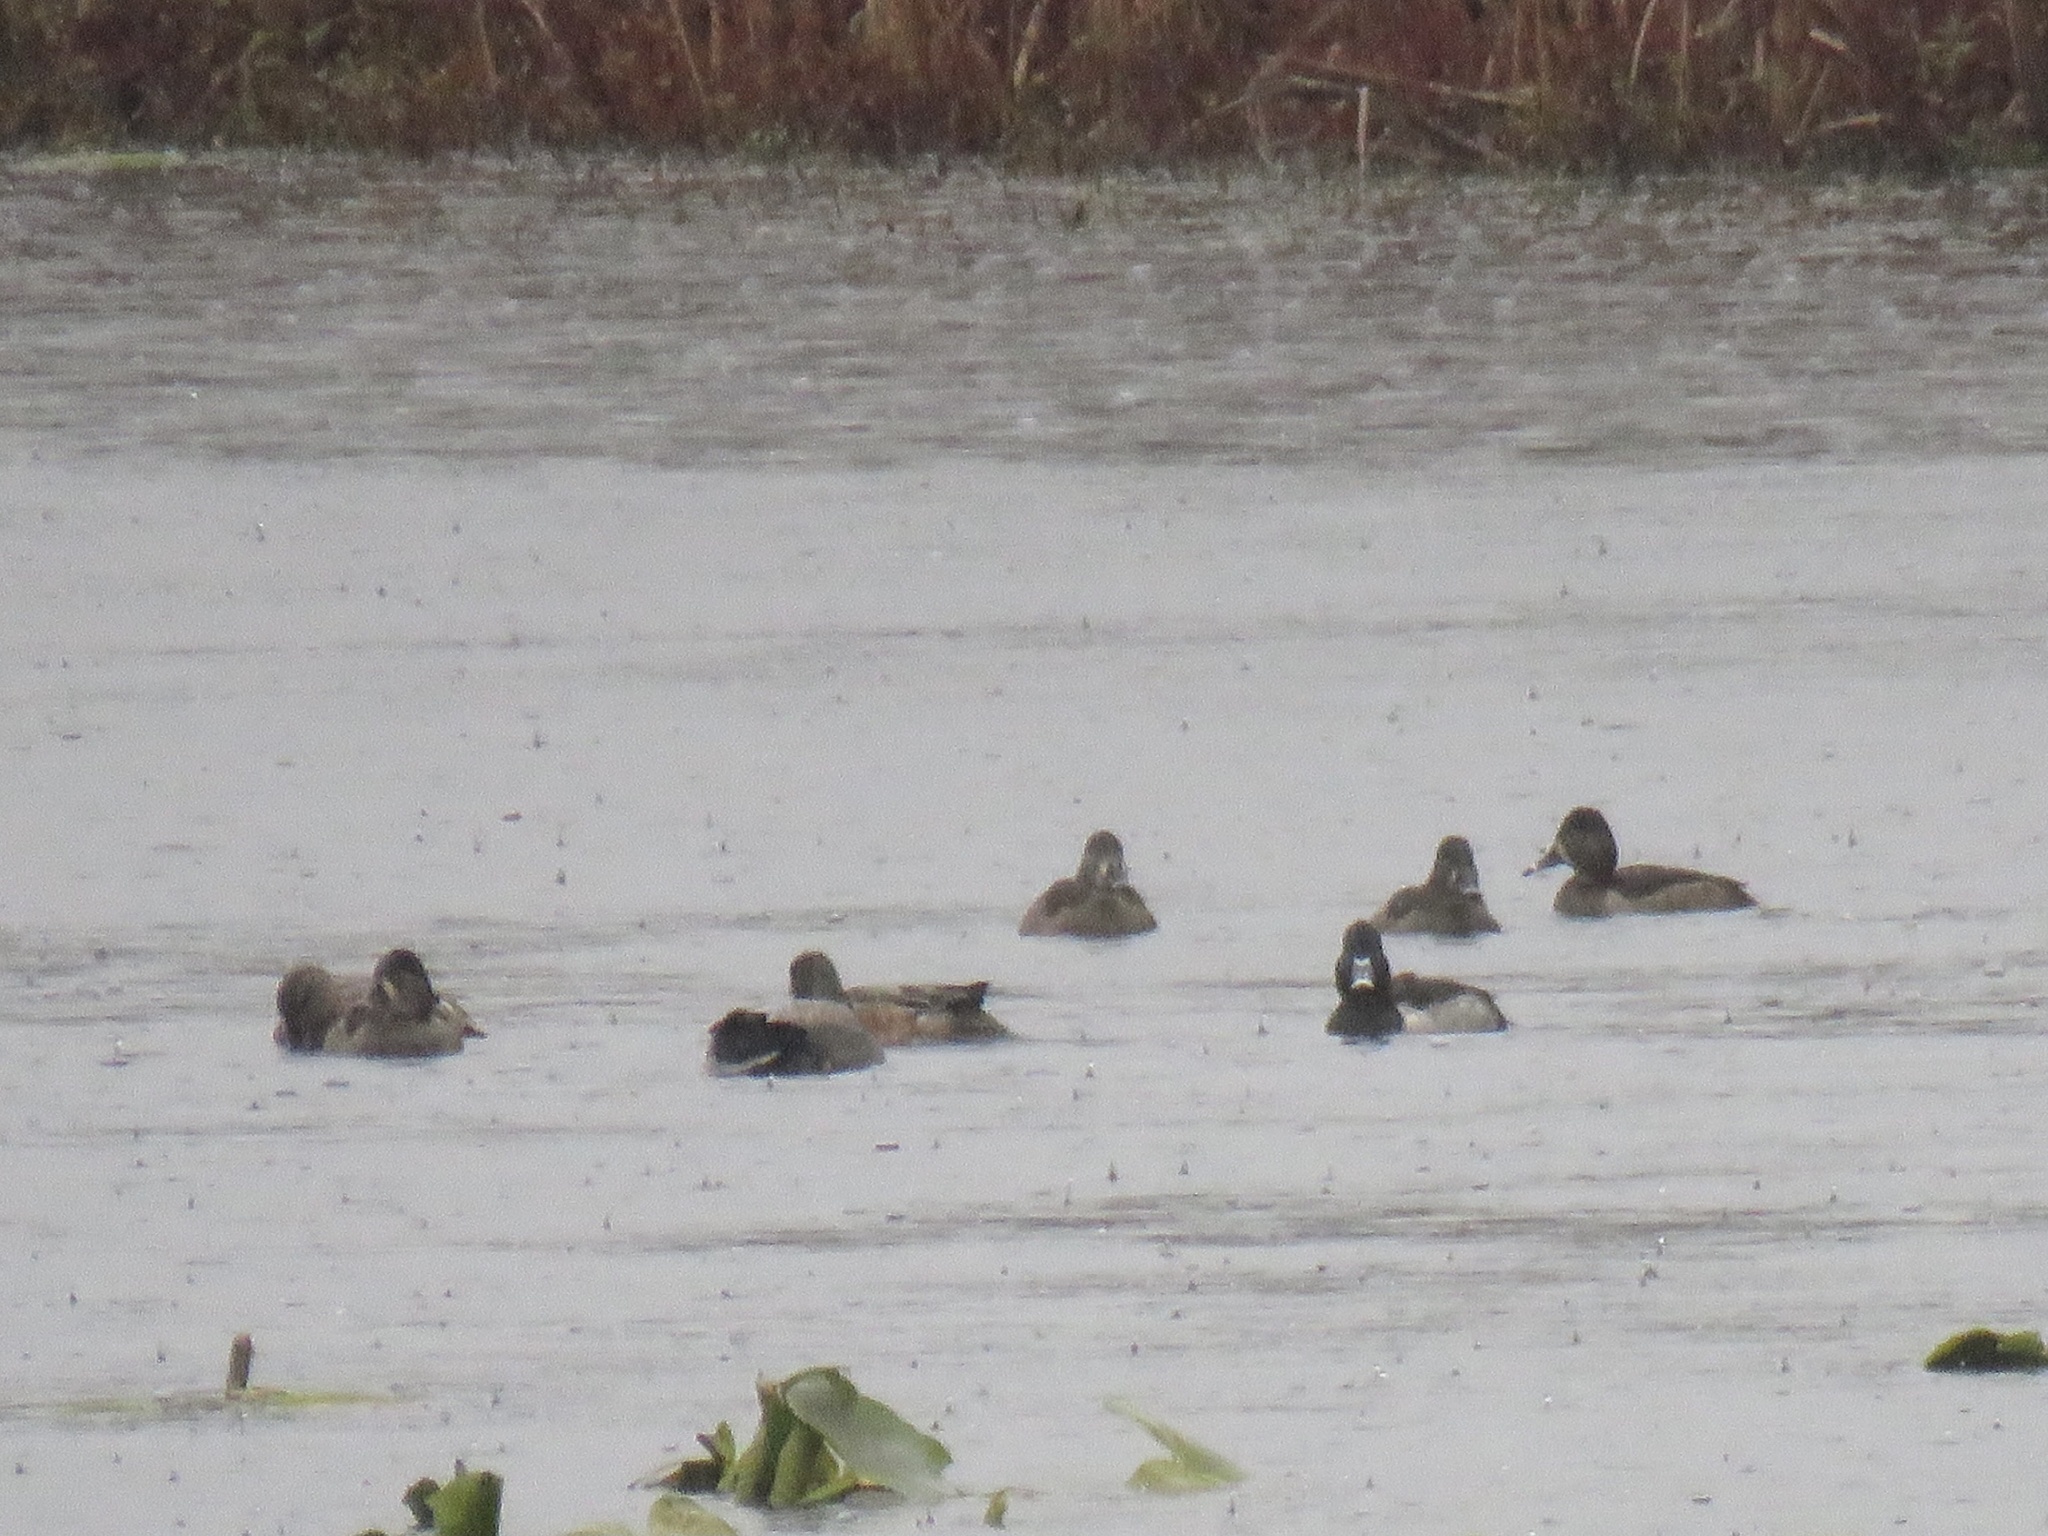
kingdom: Animalia
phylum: Chordata
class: Aves
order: Anseriformes
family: Anatidae
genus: Aythya
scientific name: Aythya collaris
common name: Ring-necked duck
